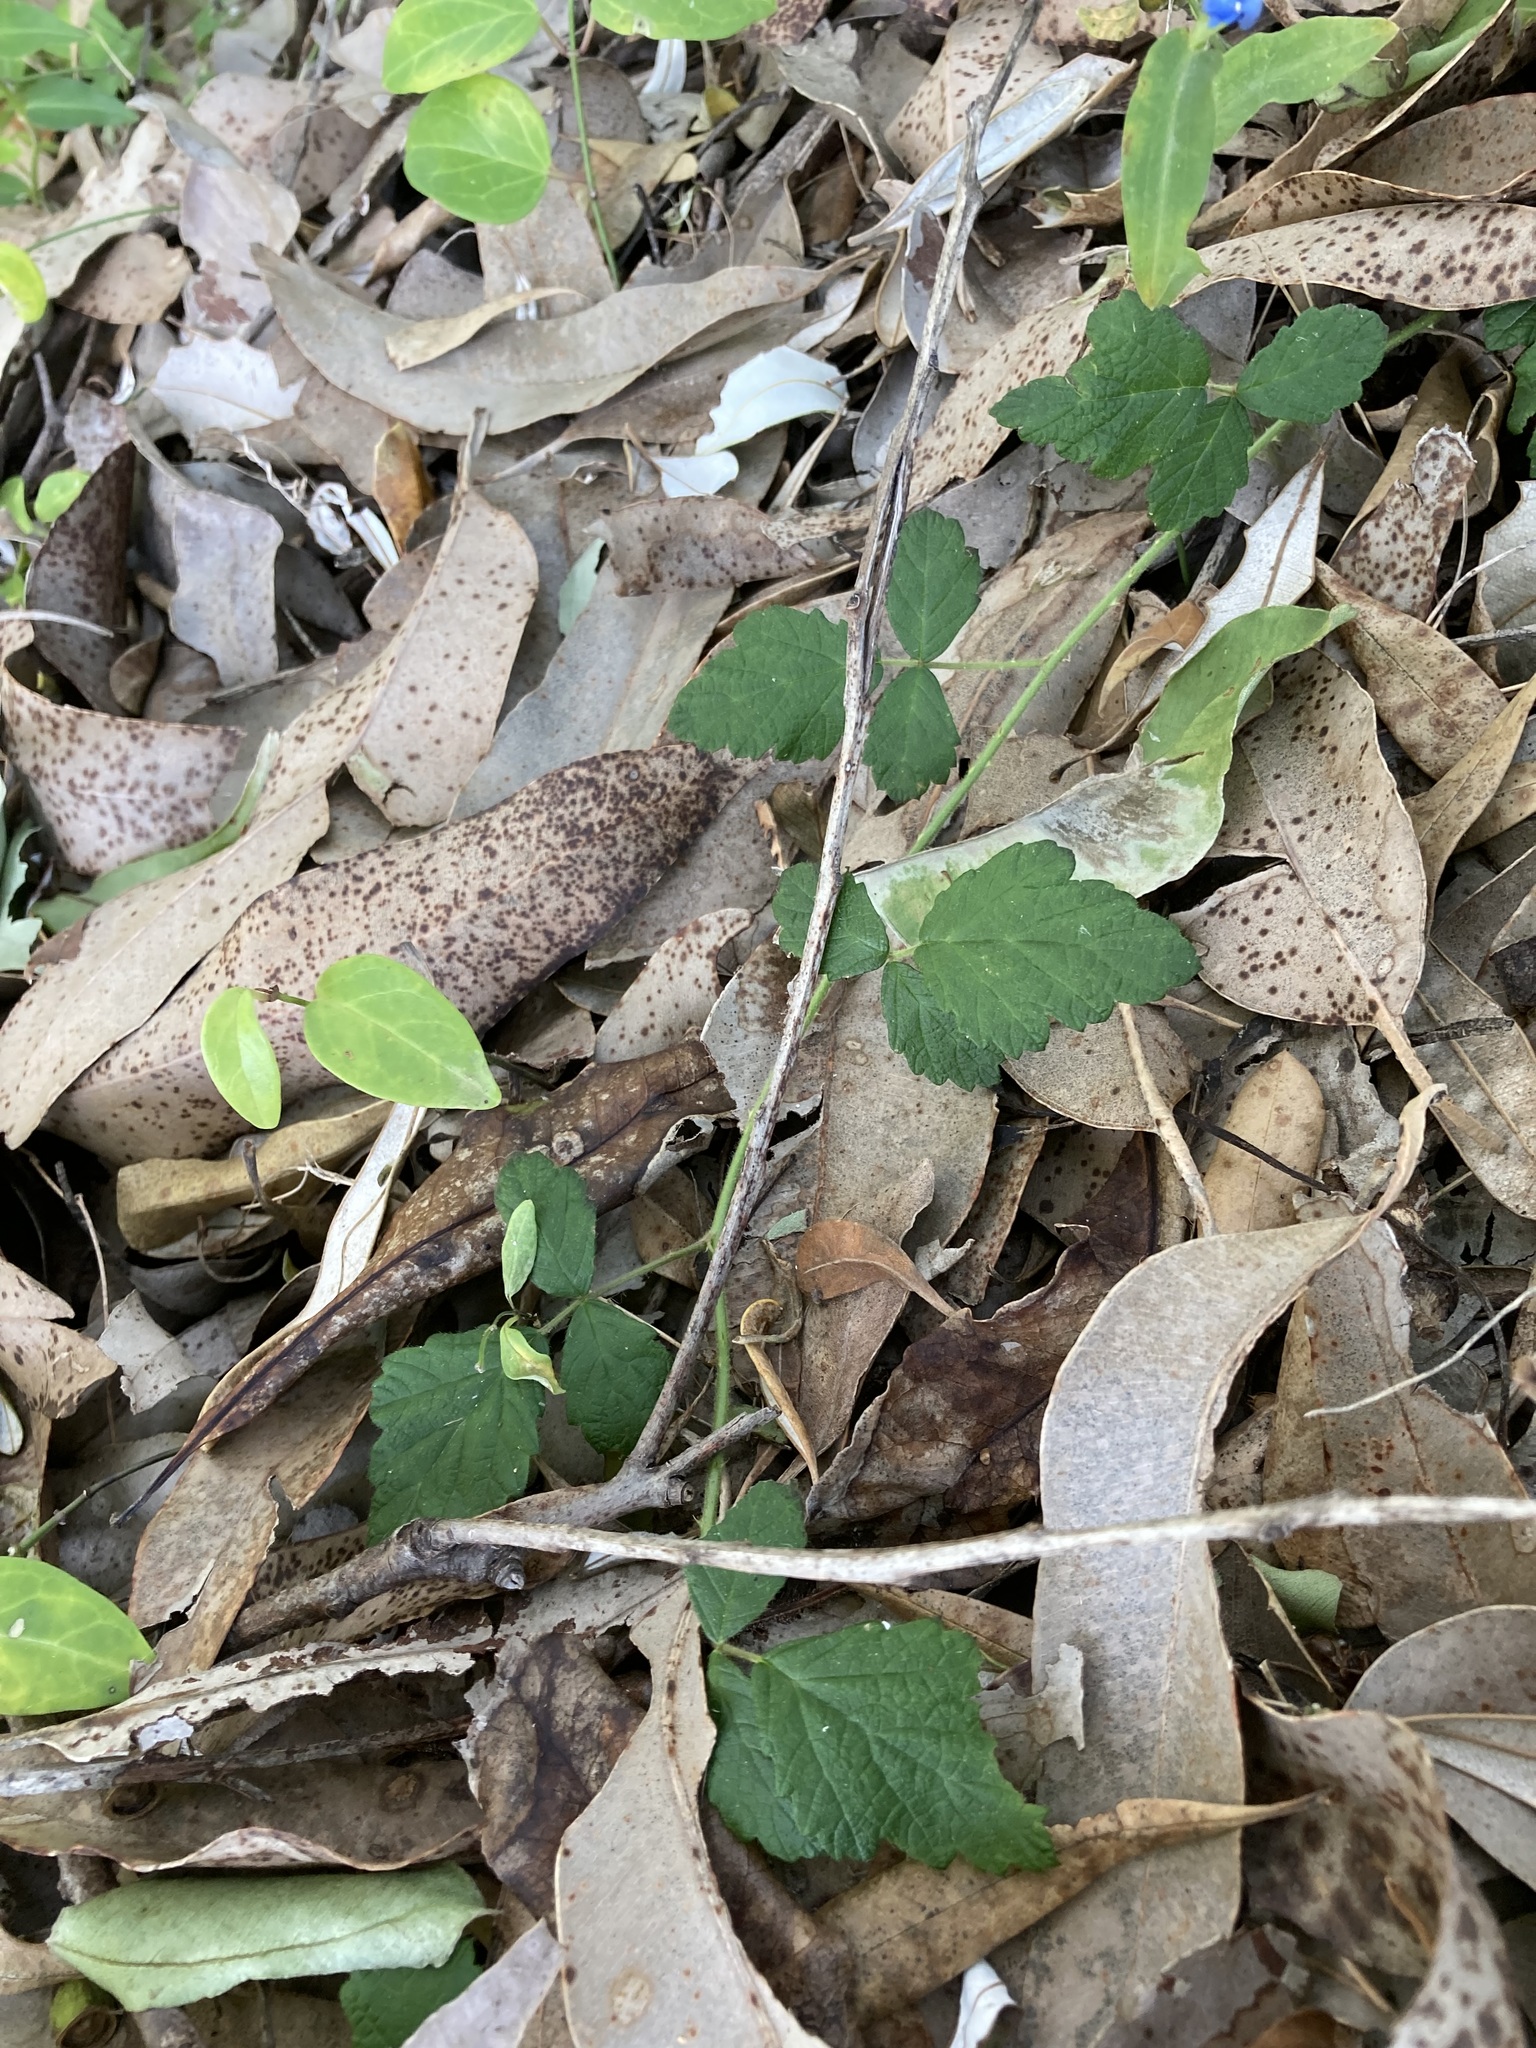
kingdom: Plantae
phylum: Tracheophyta
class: Magnoliopsida
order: Rosales
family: Rosaceae
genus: Rubus
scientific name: Rubus parvifolius
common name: Threeleaf blackberry
